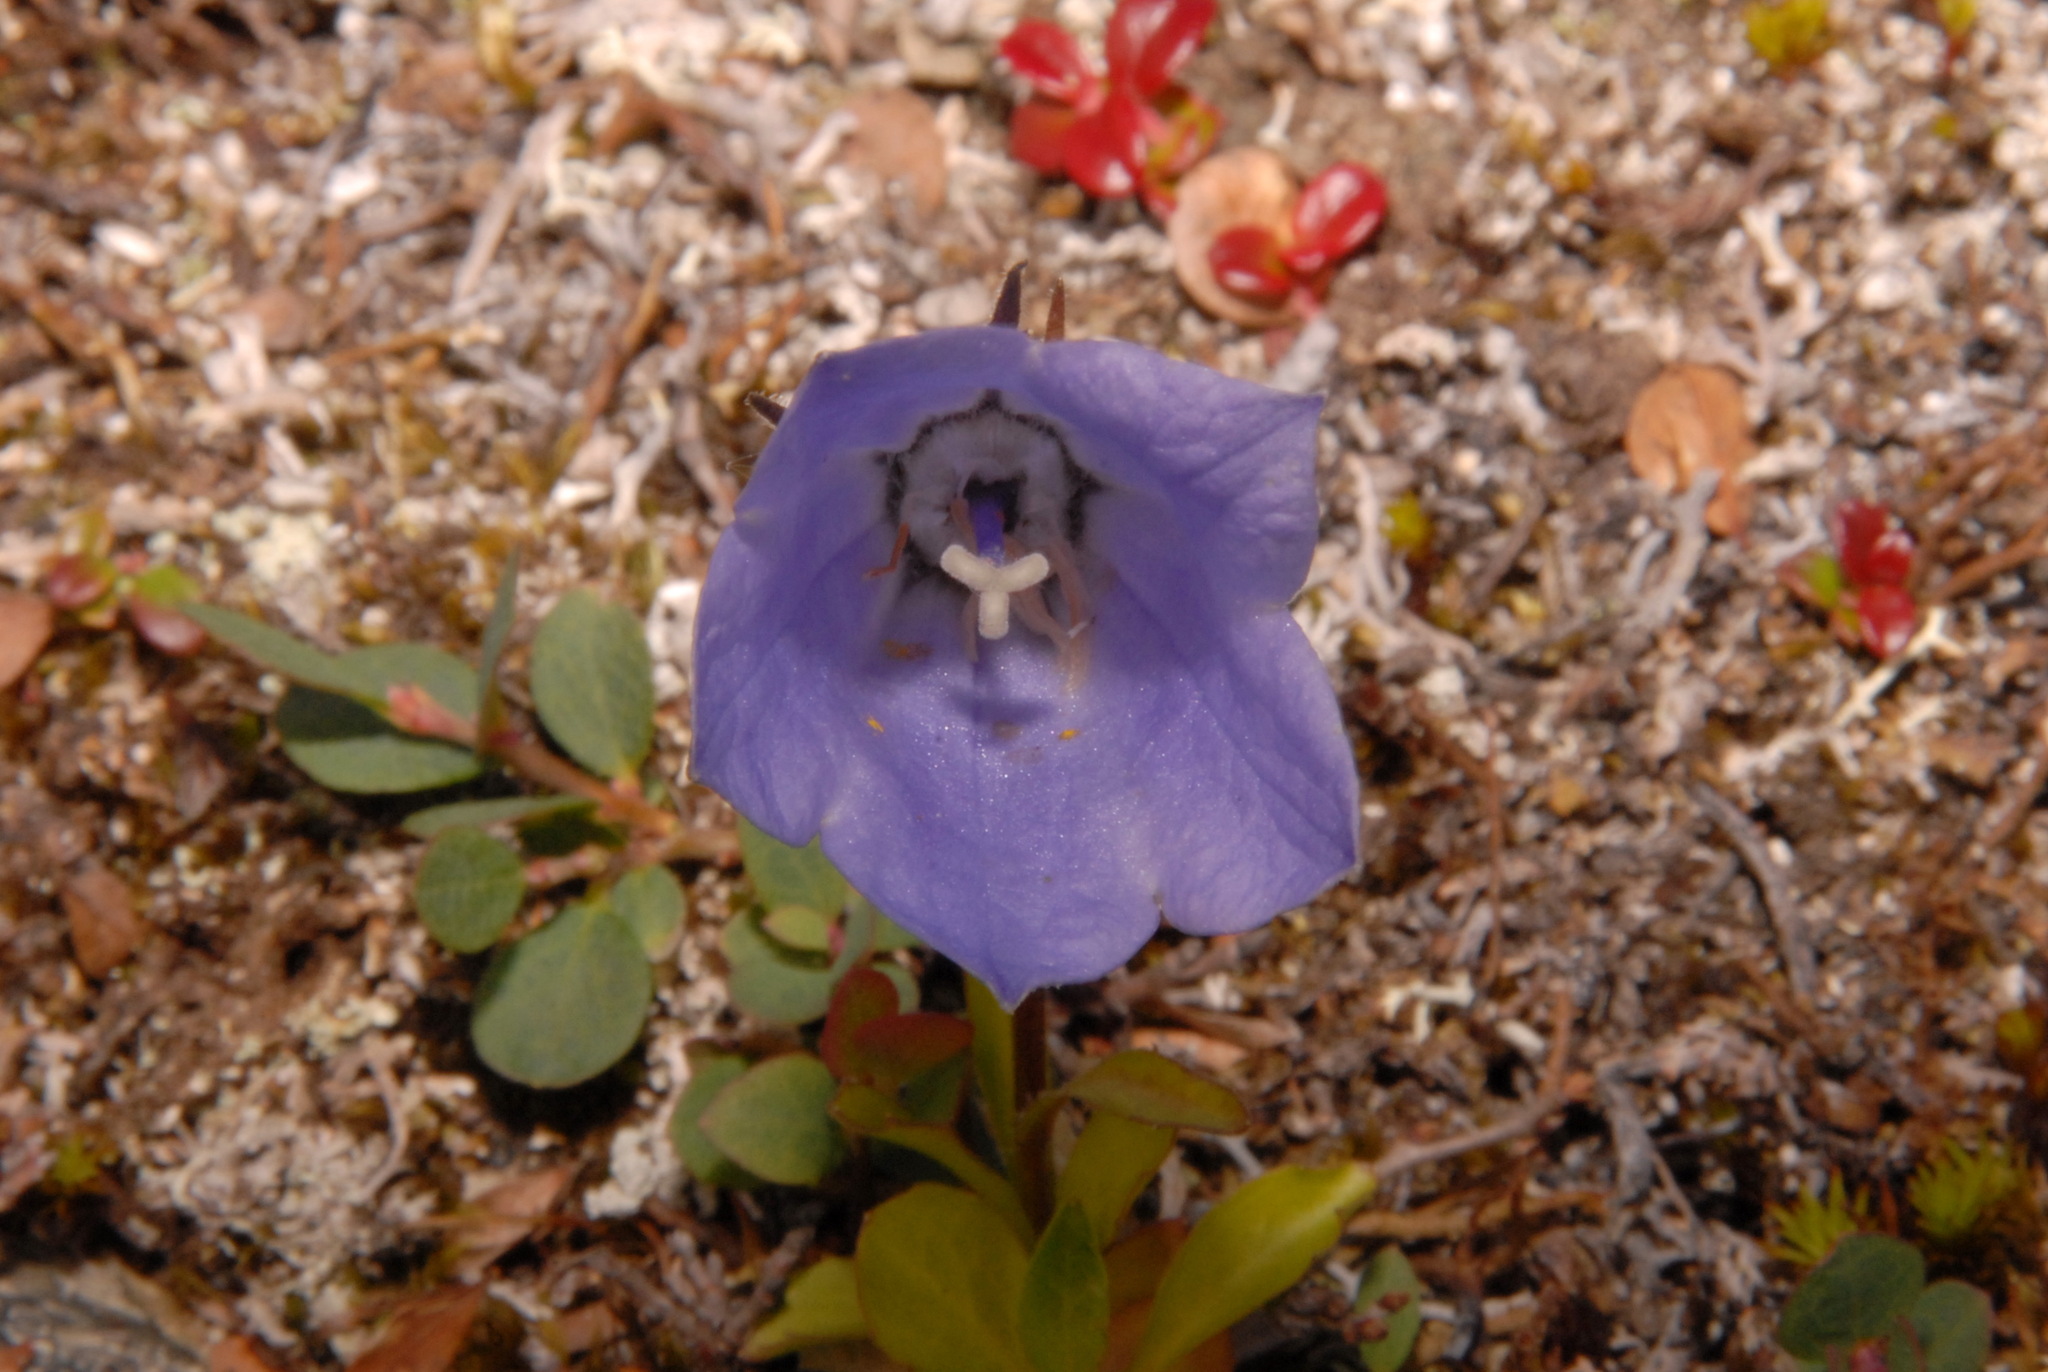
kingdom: Plantae
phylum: Tracheophyta
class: Magnoliopsida
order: Asterales
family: Campanulaceae
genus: Campanula
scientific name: Campanula lasiocarpa
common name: Mountain harebell
